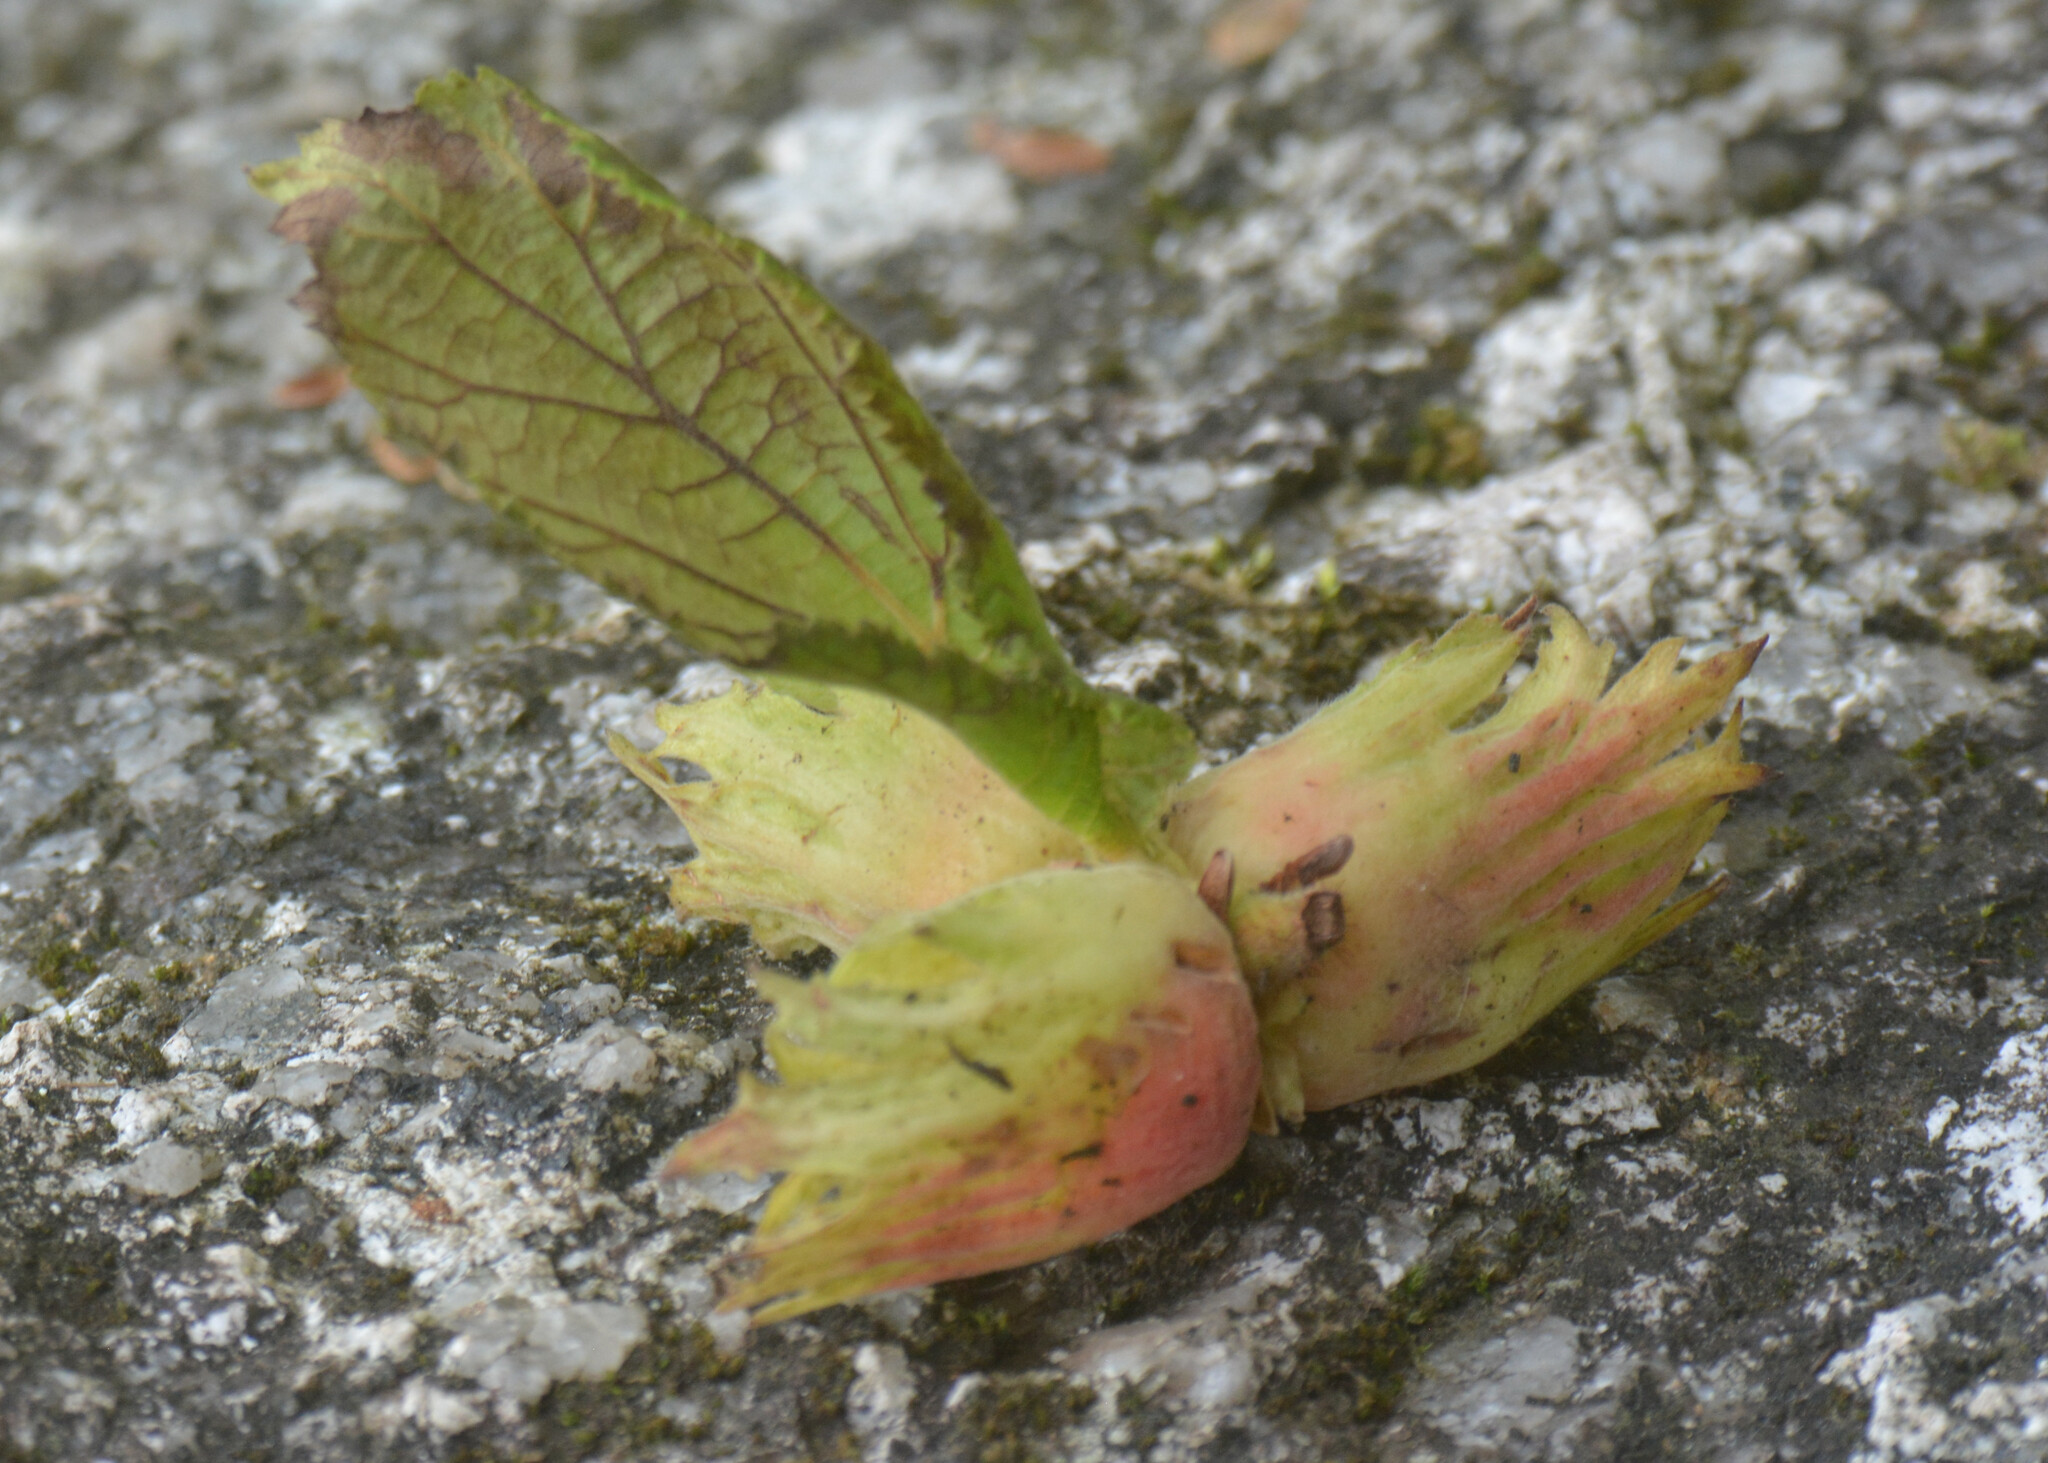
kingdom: Plantae
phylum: Tracheophyta
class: Magnoliopsida
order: Fagales
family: Betulaceae
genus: Corylus
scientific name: Corylus avellana
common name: European hazel
